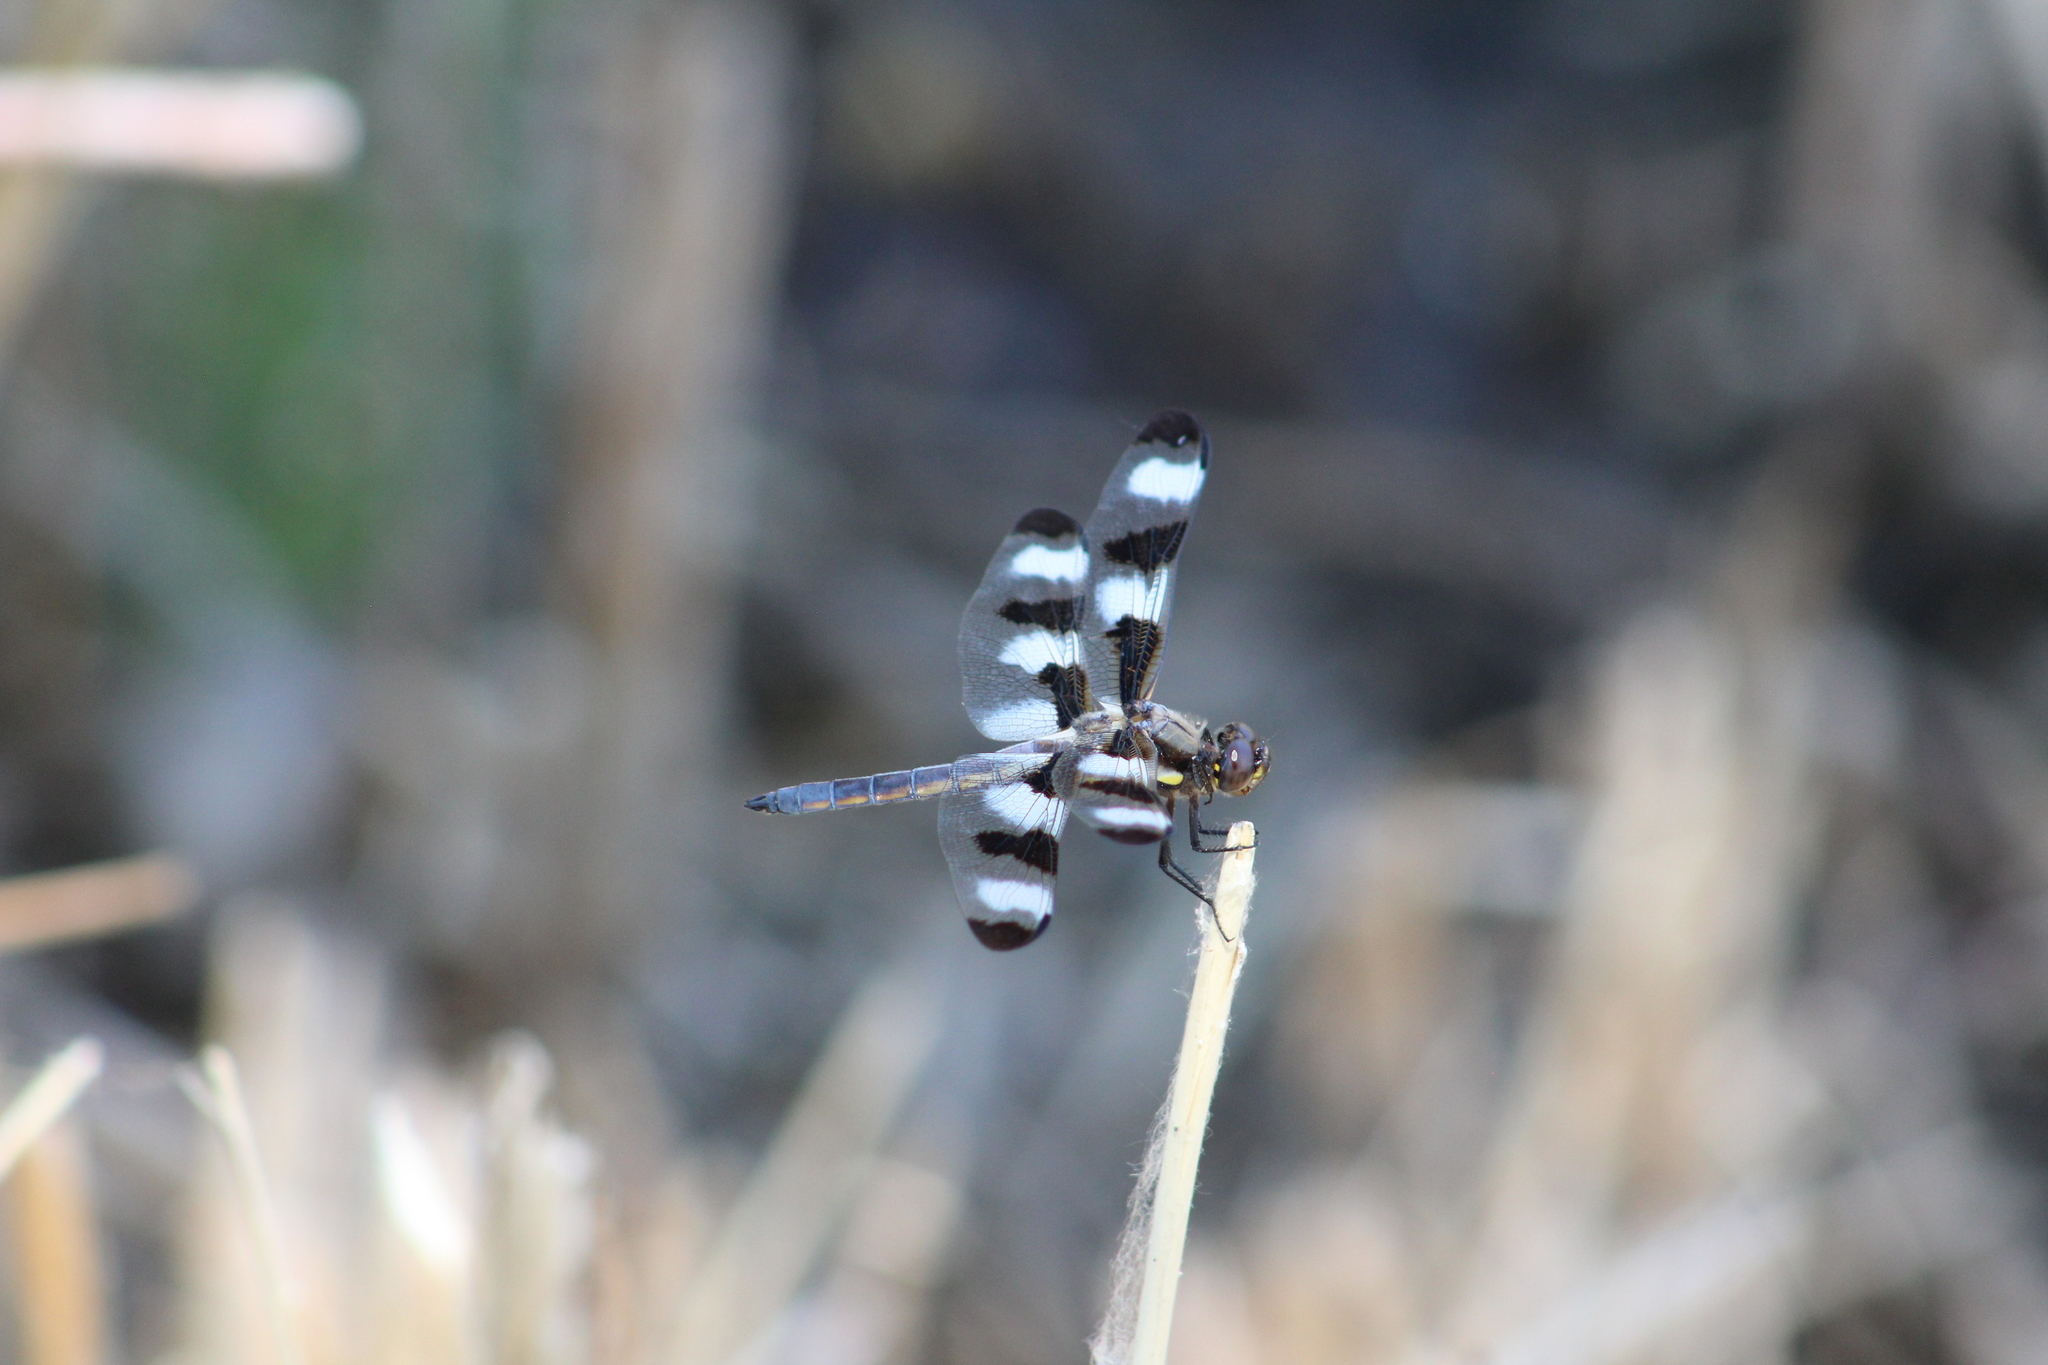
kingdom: Animalia
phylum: Arthropoda
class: Insecta
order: Odonata
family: Libellulidae
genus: Libellula
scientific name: Libellula pulchella
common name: Twelve-spotted skimmer
